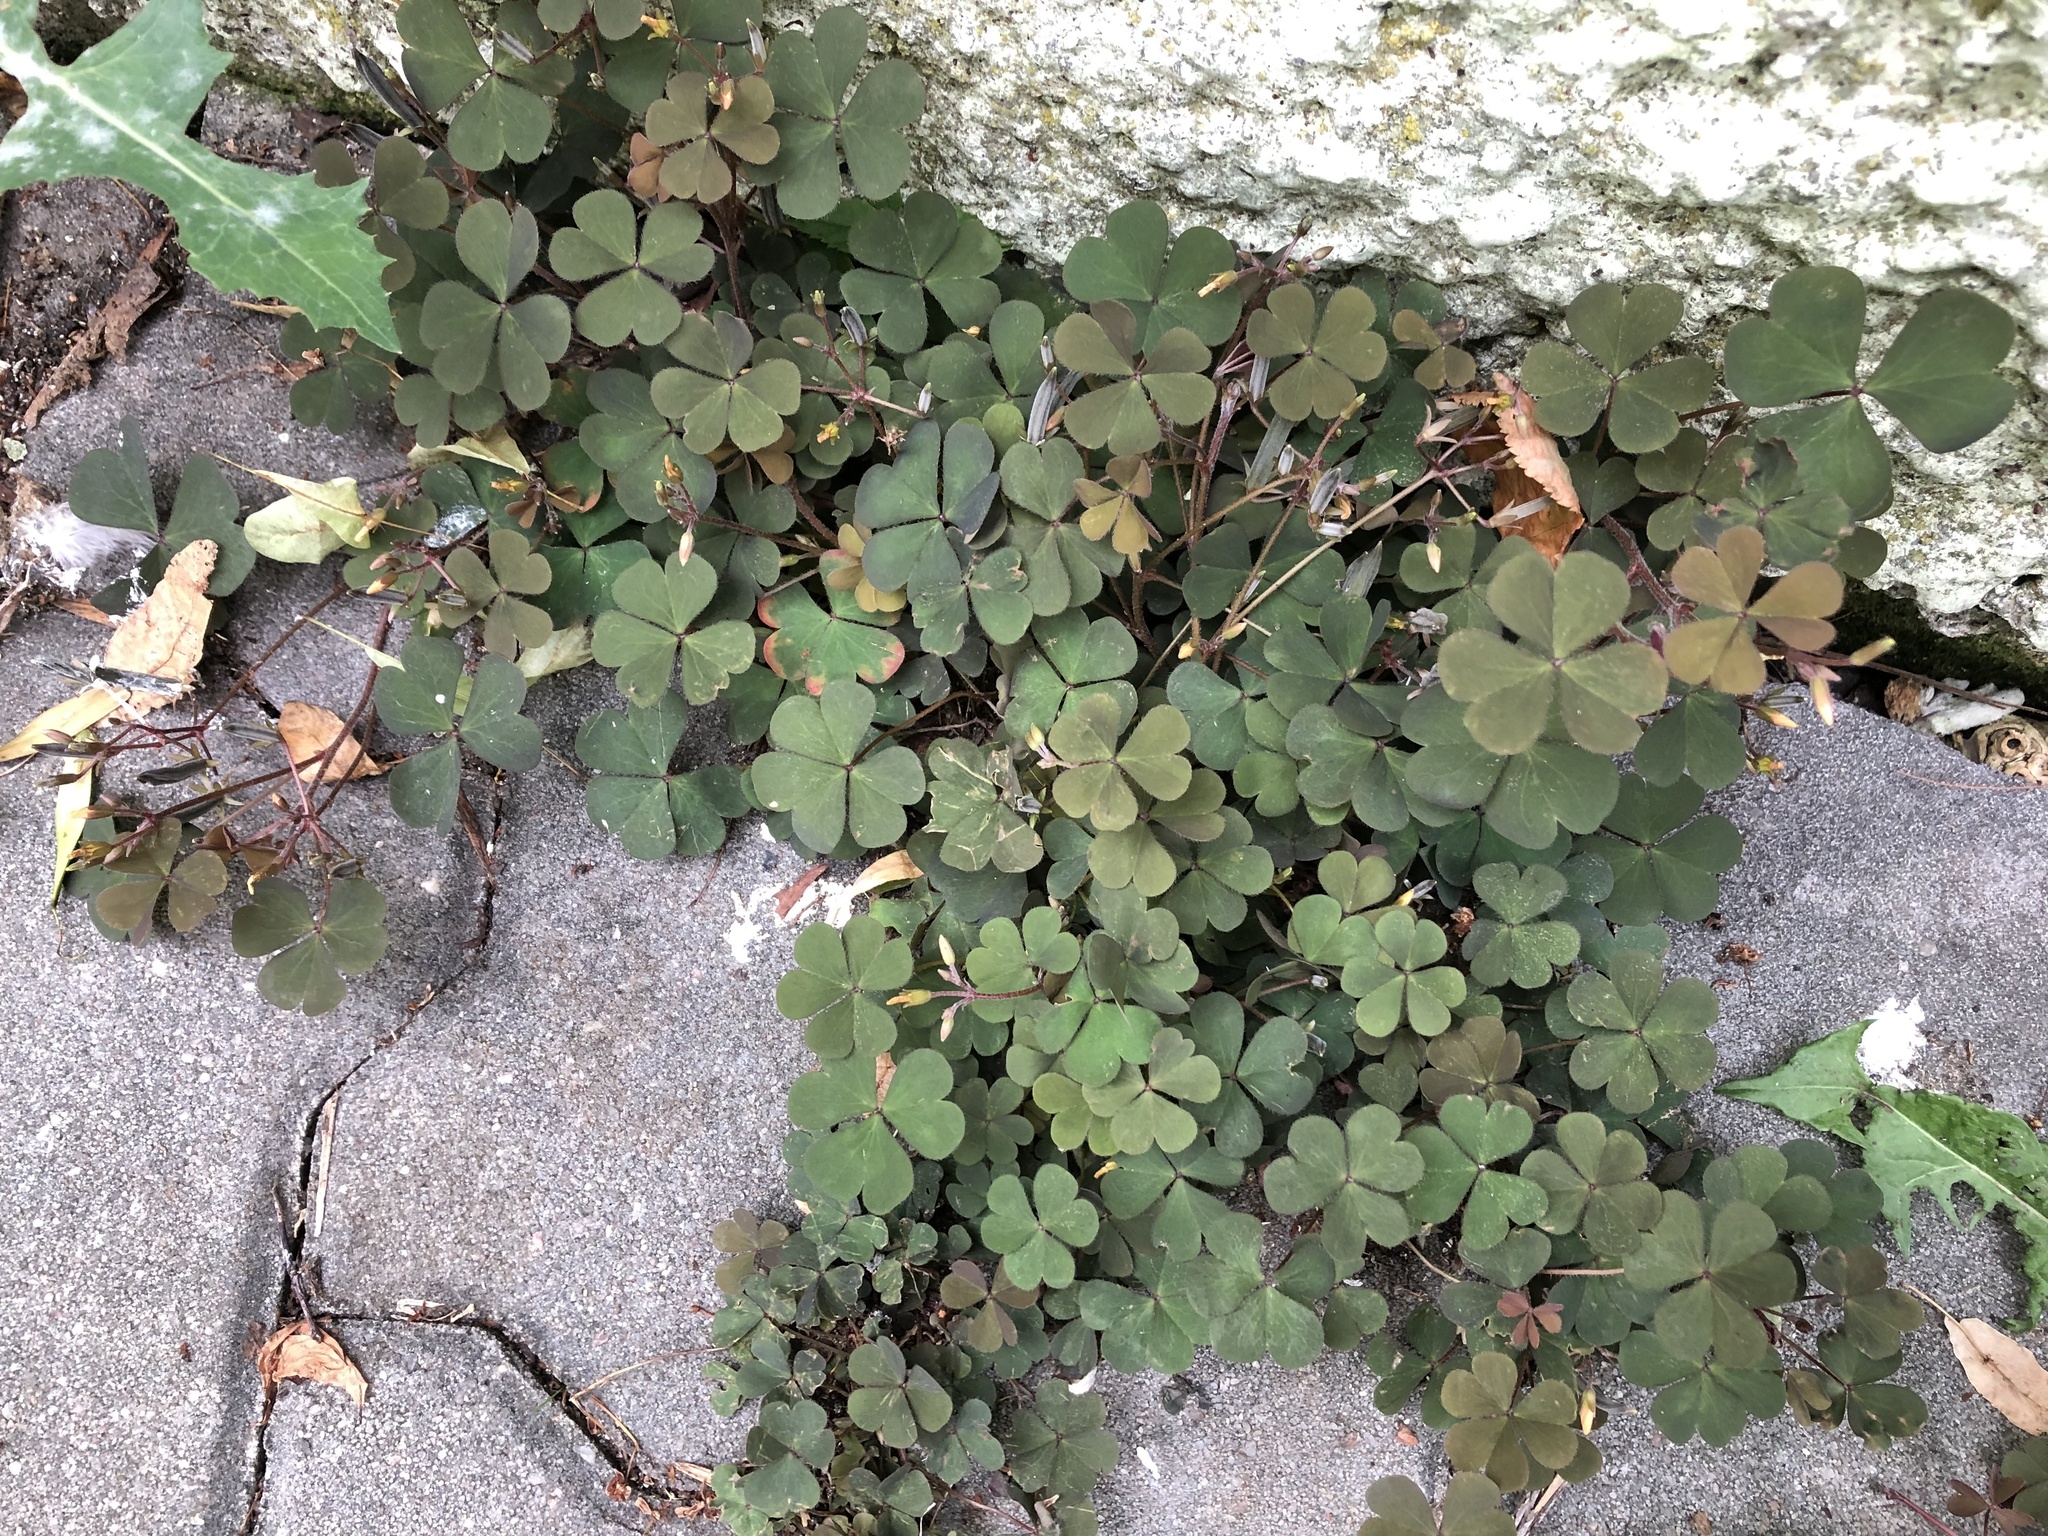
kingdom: Plantae
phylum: Tracheophyta
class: Magnoliopsida
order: Oxalidales
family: Oxalidaceae
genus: Oxalis
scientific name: Oxalis corniculata
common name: Procumbent yellow-sorrel
